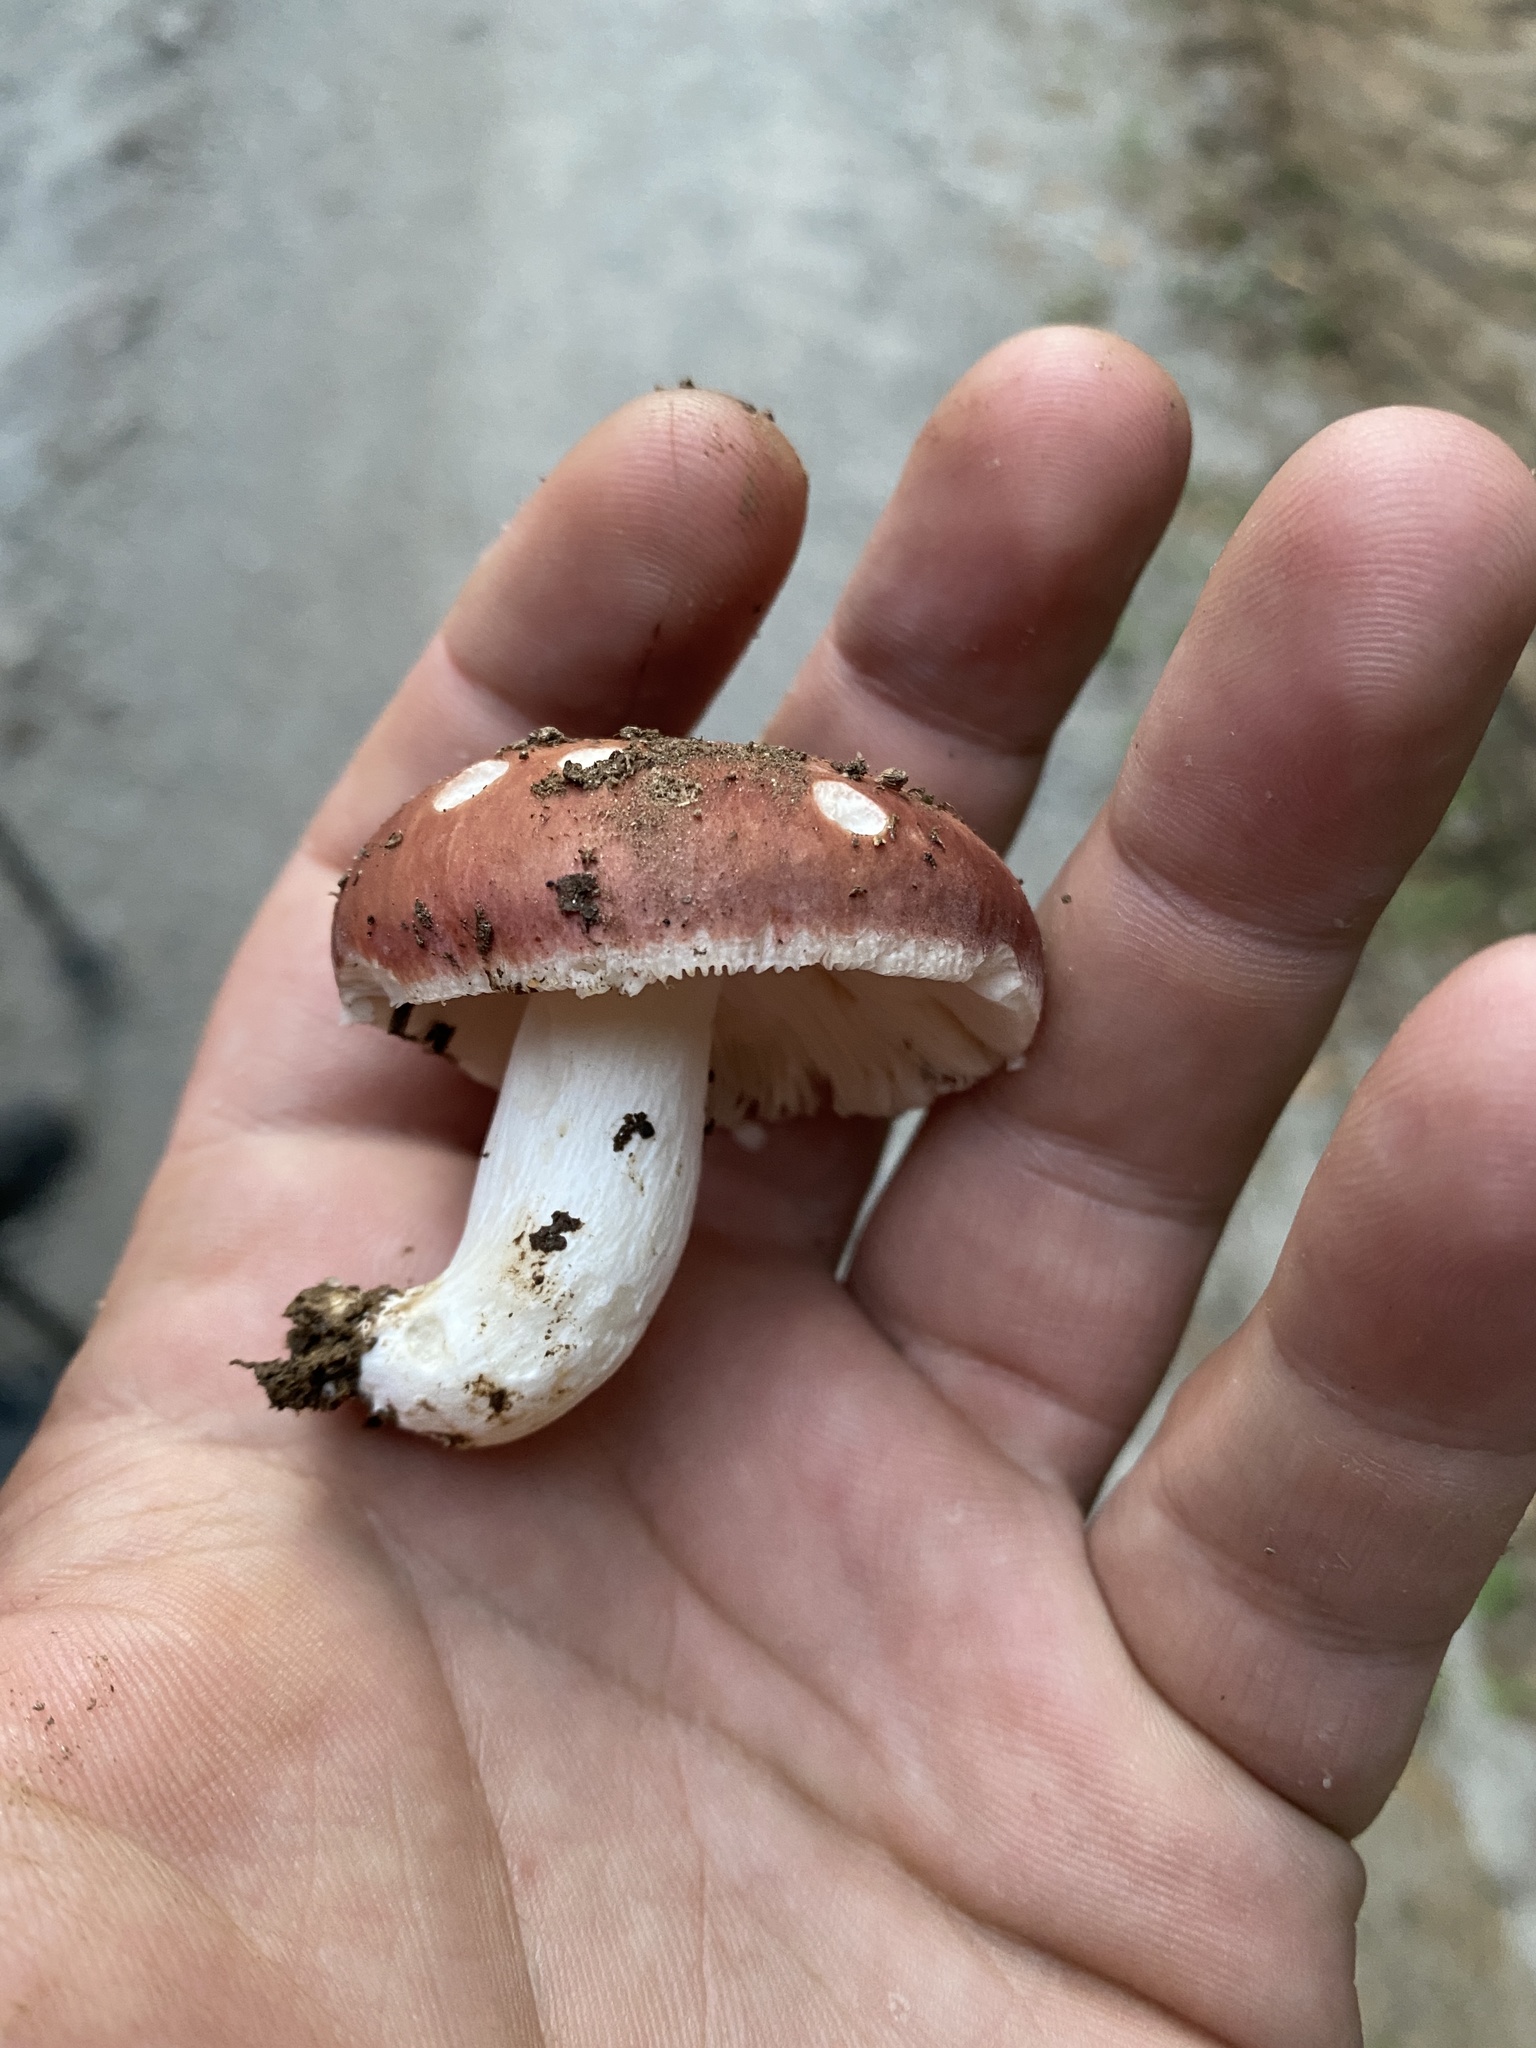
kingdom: Fungi
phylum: Basidiomycota
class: Agaricomycetes
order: Russulales
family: Russulaceae
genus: Russula
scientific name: Russula vesca
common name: Bare-toothed russula
